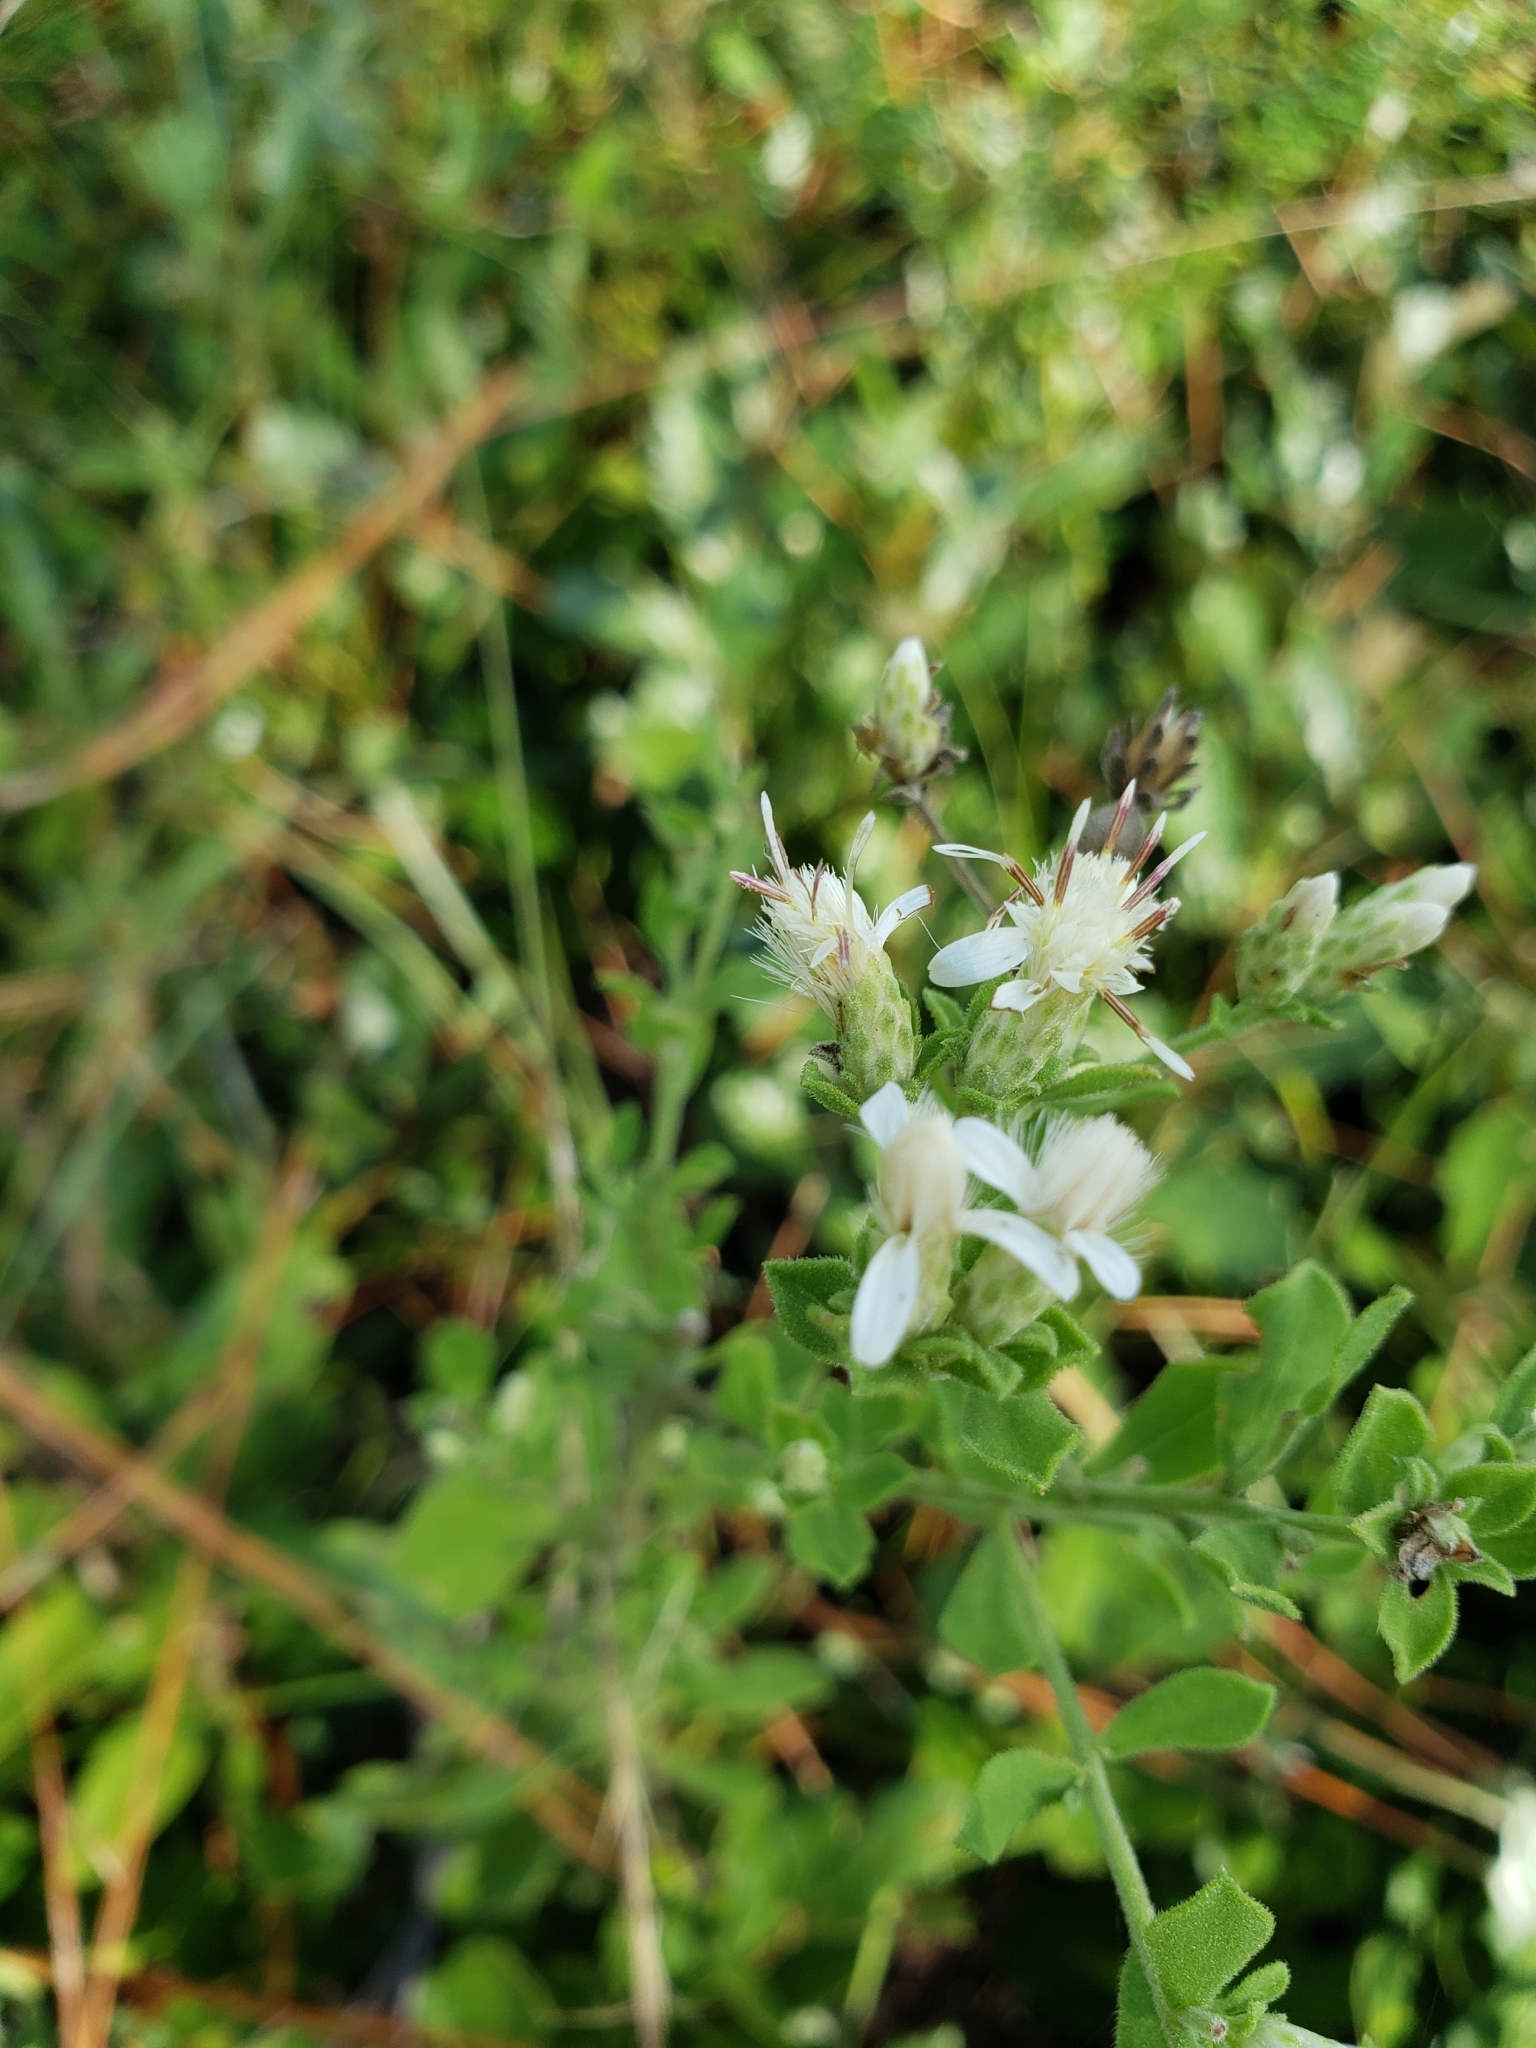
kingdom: Plantae
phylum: Tracheophyta
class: Magnoliopsida
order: Asterales
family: Asteraceae
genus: Sericocarpus
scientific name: Sericocarpus tortifolius
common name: Dixie aster
